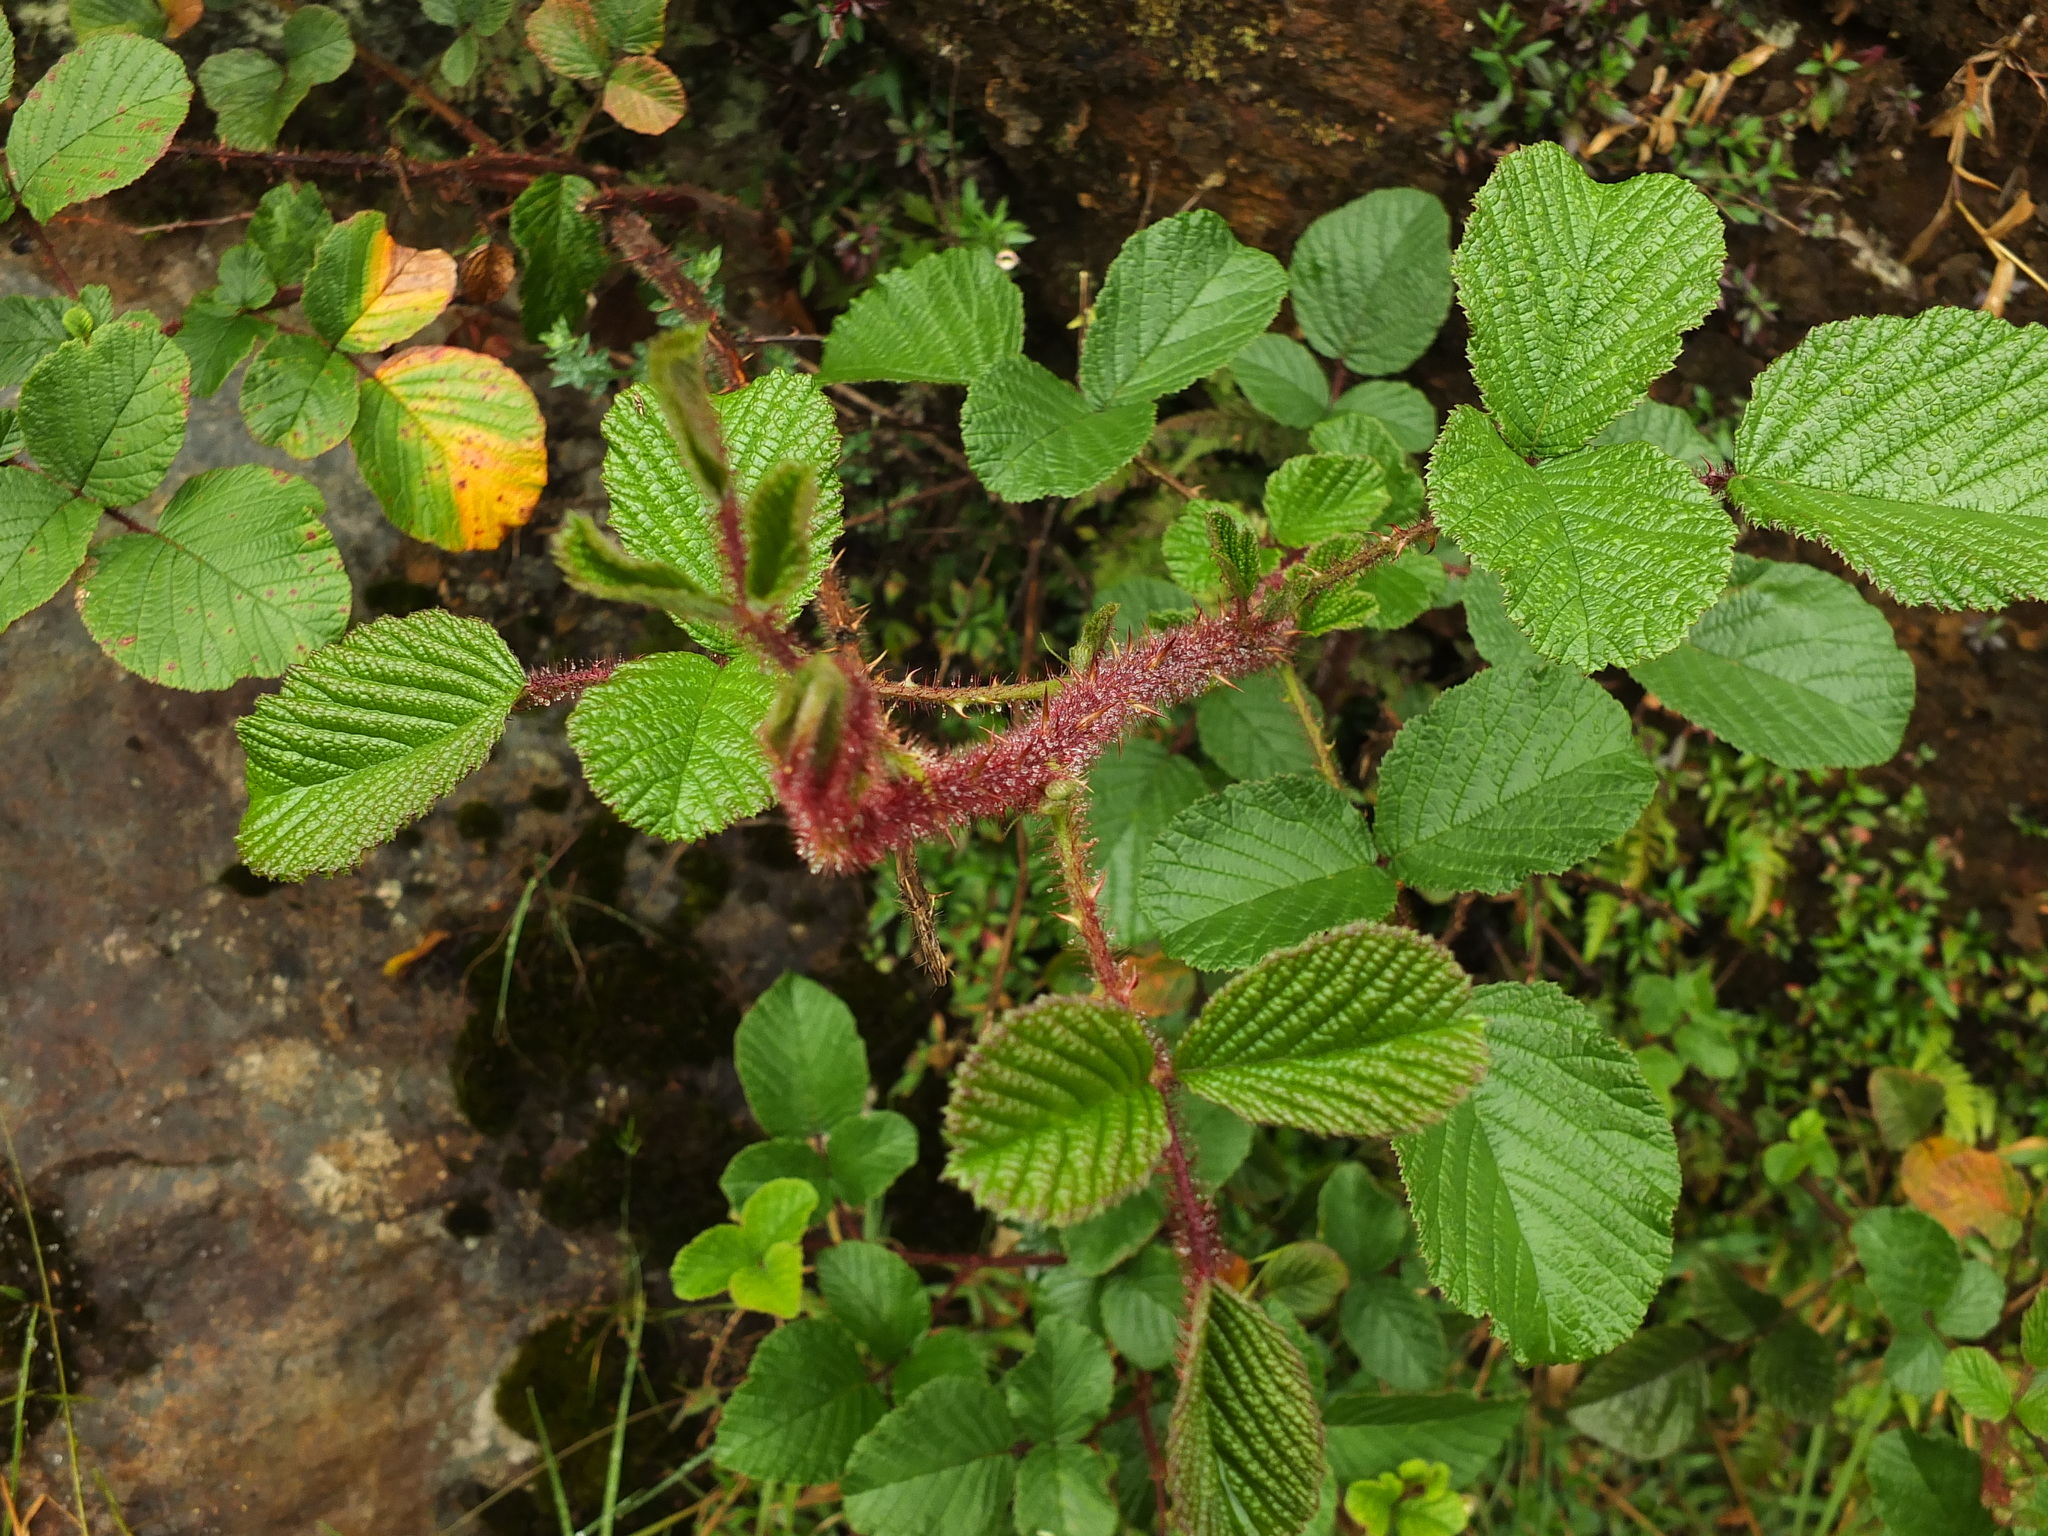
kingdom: Plantae
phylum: Tracheophyta
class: Magnoliopsida
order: Rosales
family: Rosaceae
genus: Rubus
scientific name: Rubus ellipticus
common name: Cheeseberry
